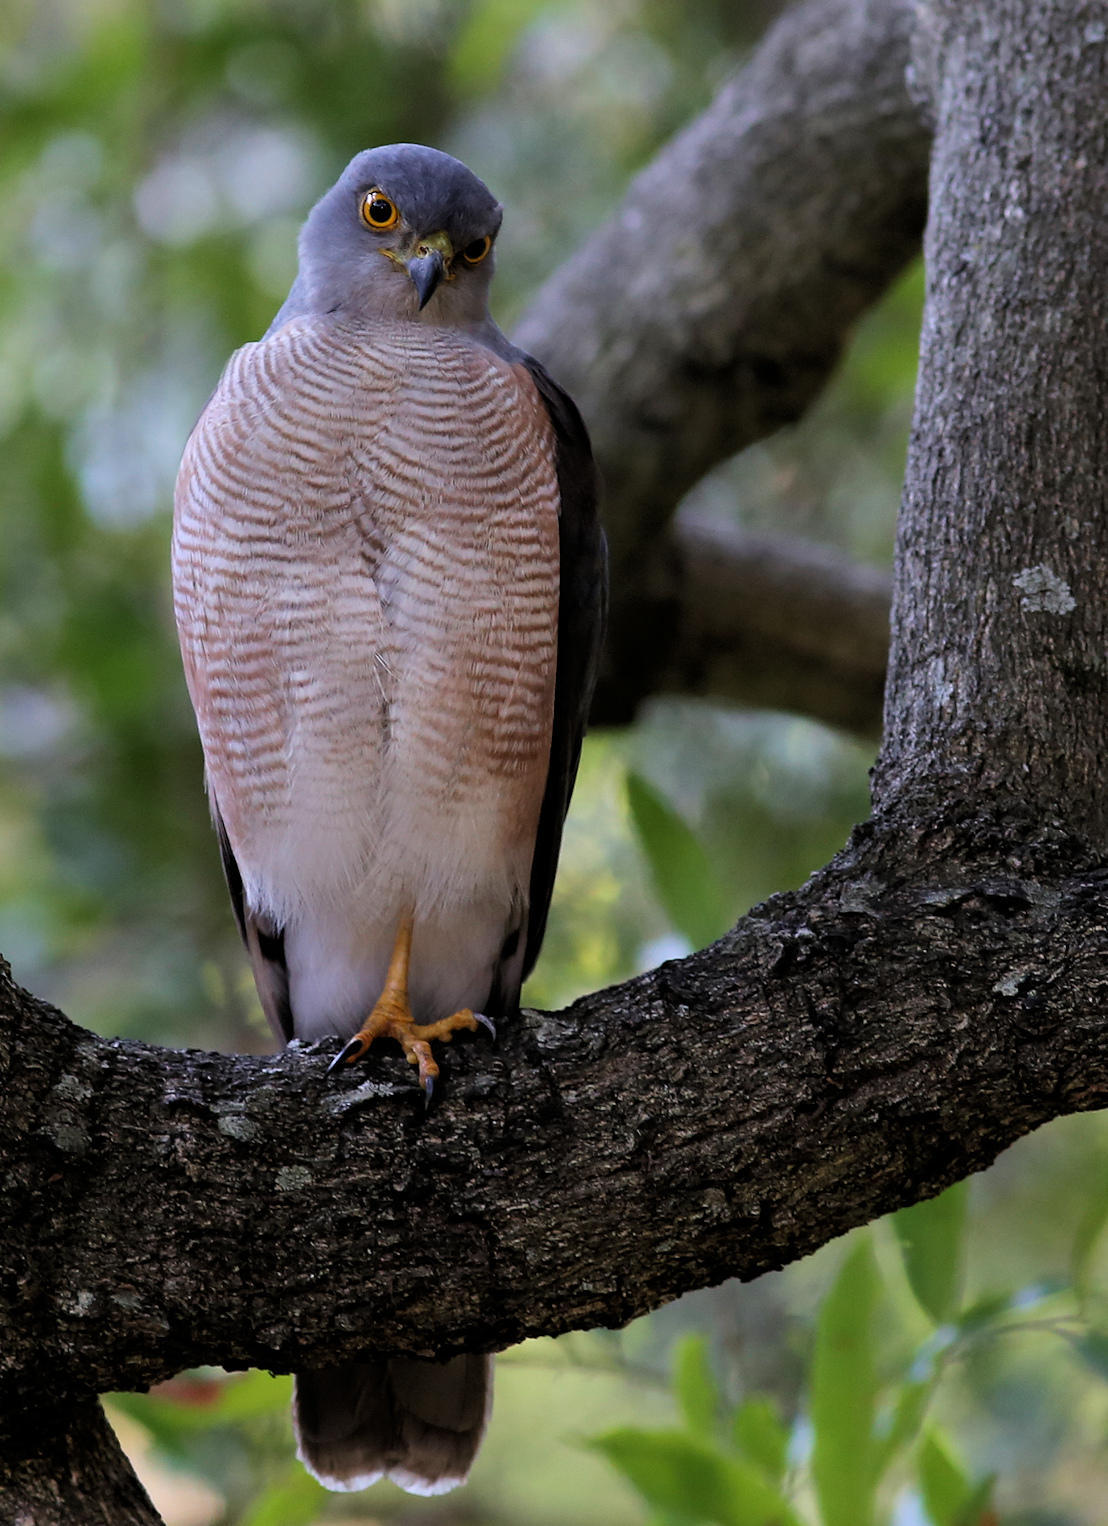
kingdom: Animalia
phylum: Chordata
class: Aves
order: Accipitriformes
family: Accipitridae
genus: Accipiter
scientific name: Accipiter tachiro
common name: African goshawk
